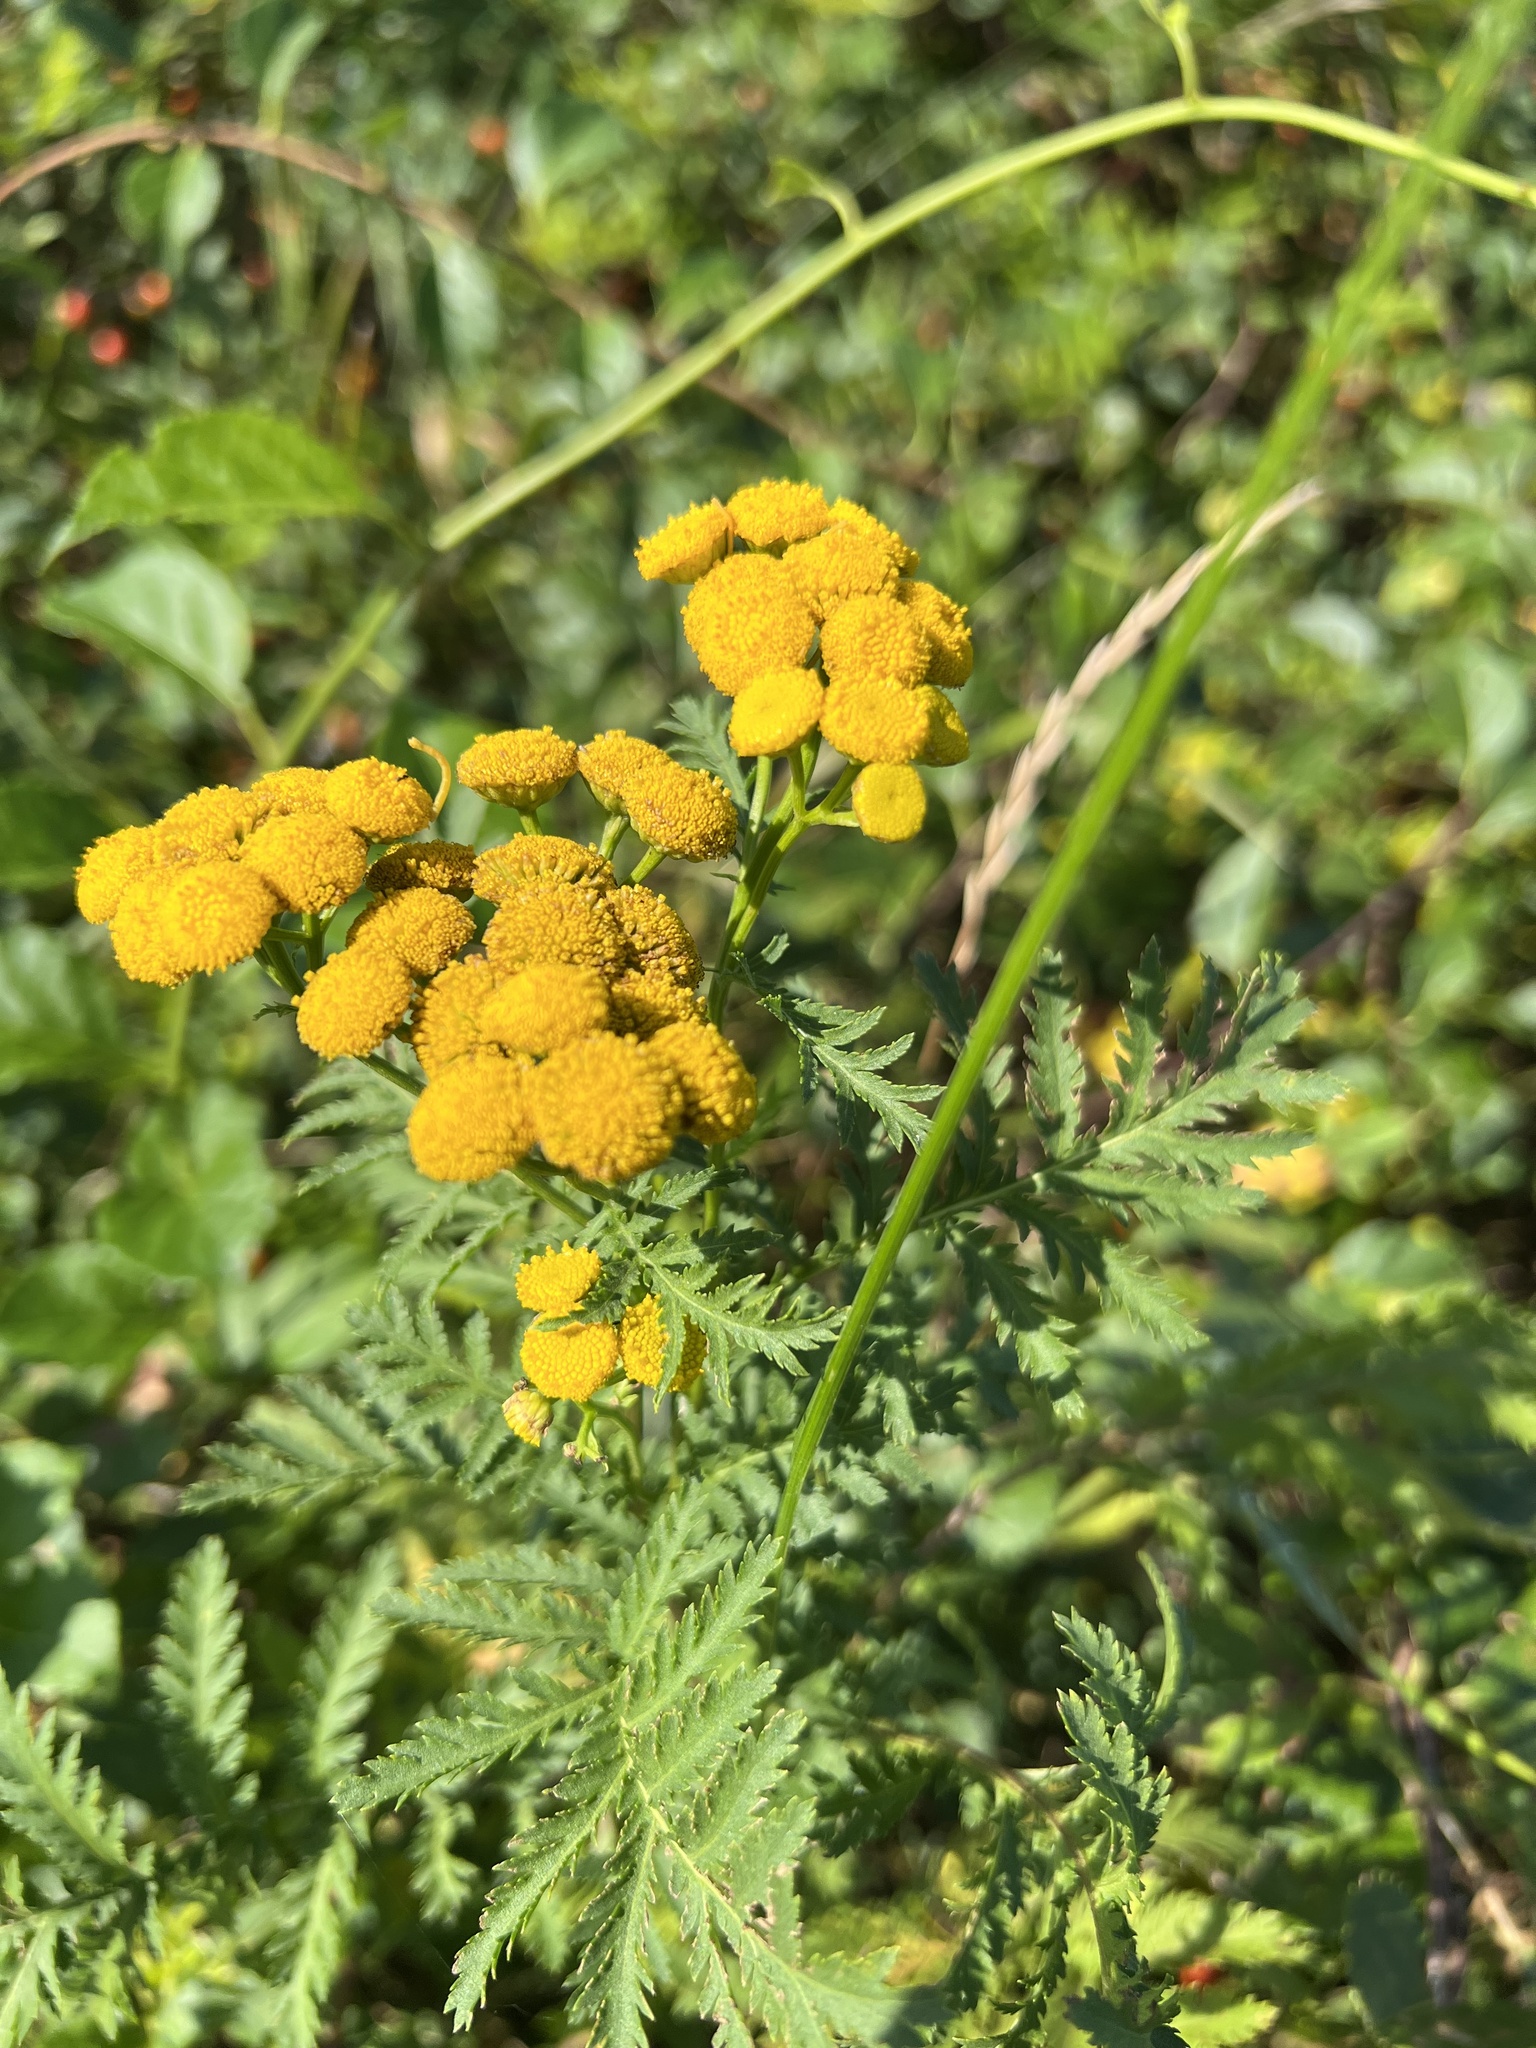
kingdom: Plantae
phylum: Tracheophyta
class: Magnoliopsida
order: Asterales
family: Asteraceae
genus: Tanacetum
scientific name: Tanacetum vulgare
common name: Common tansy
